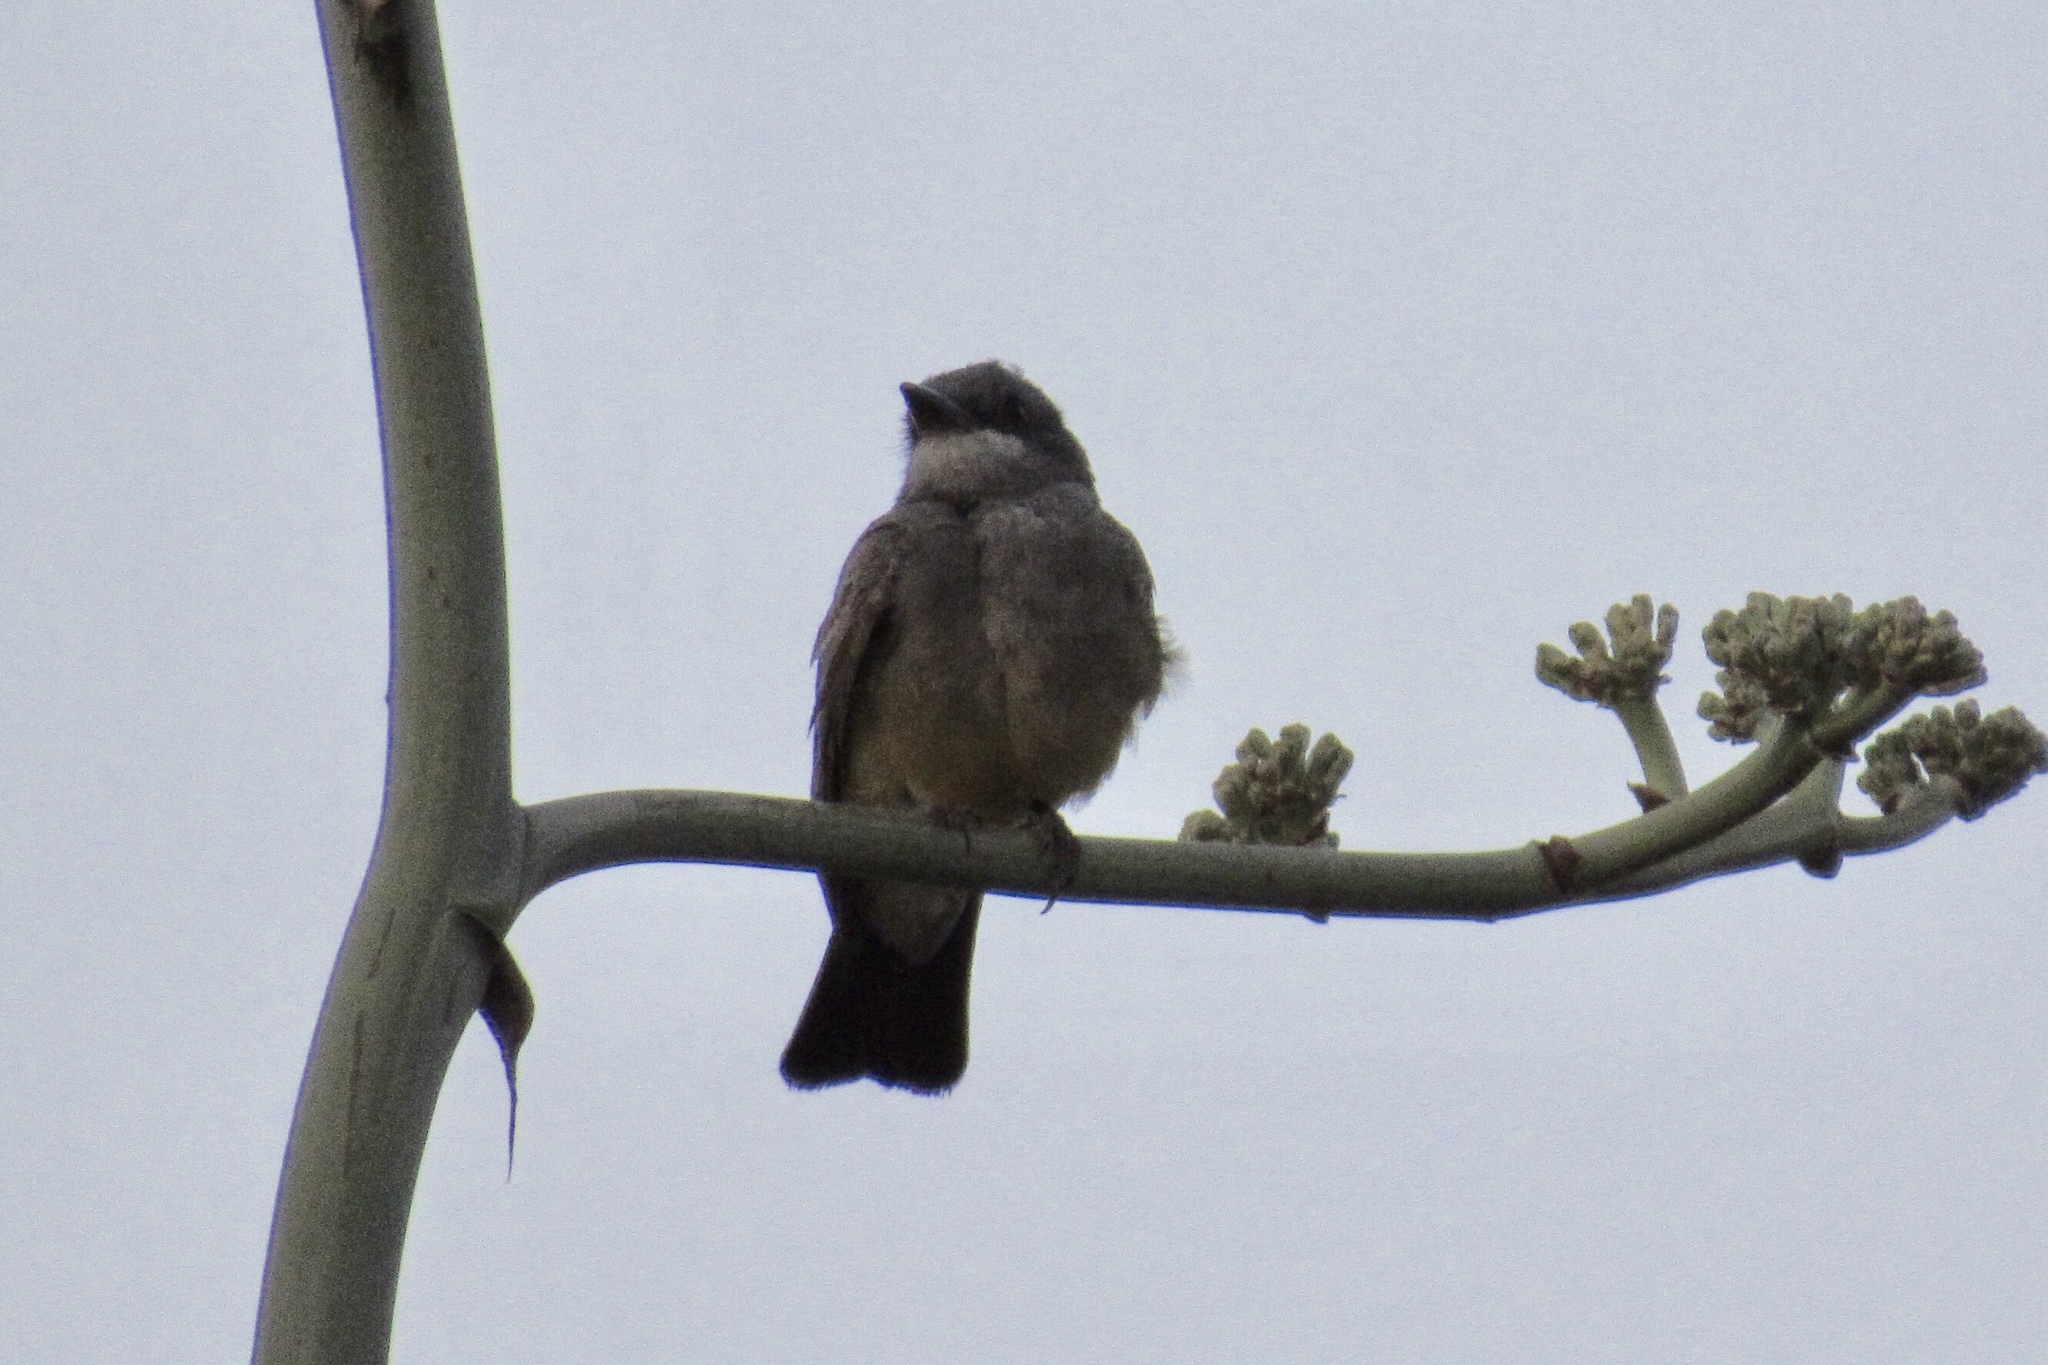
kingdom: Animalia
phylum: Chordata
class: Aves
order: Passeriformes
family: Tyrannidae
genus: Tyrannus
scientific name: Tyrannus vociferans
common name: Cassin's kingbird
